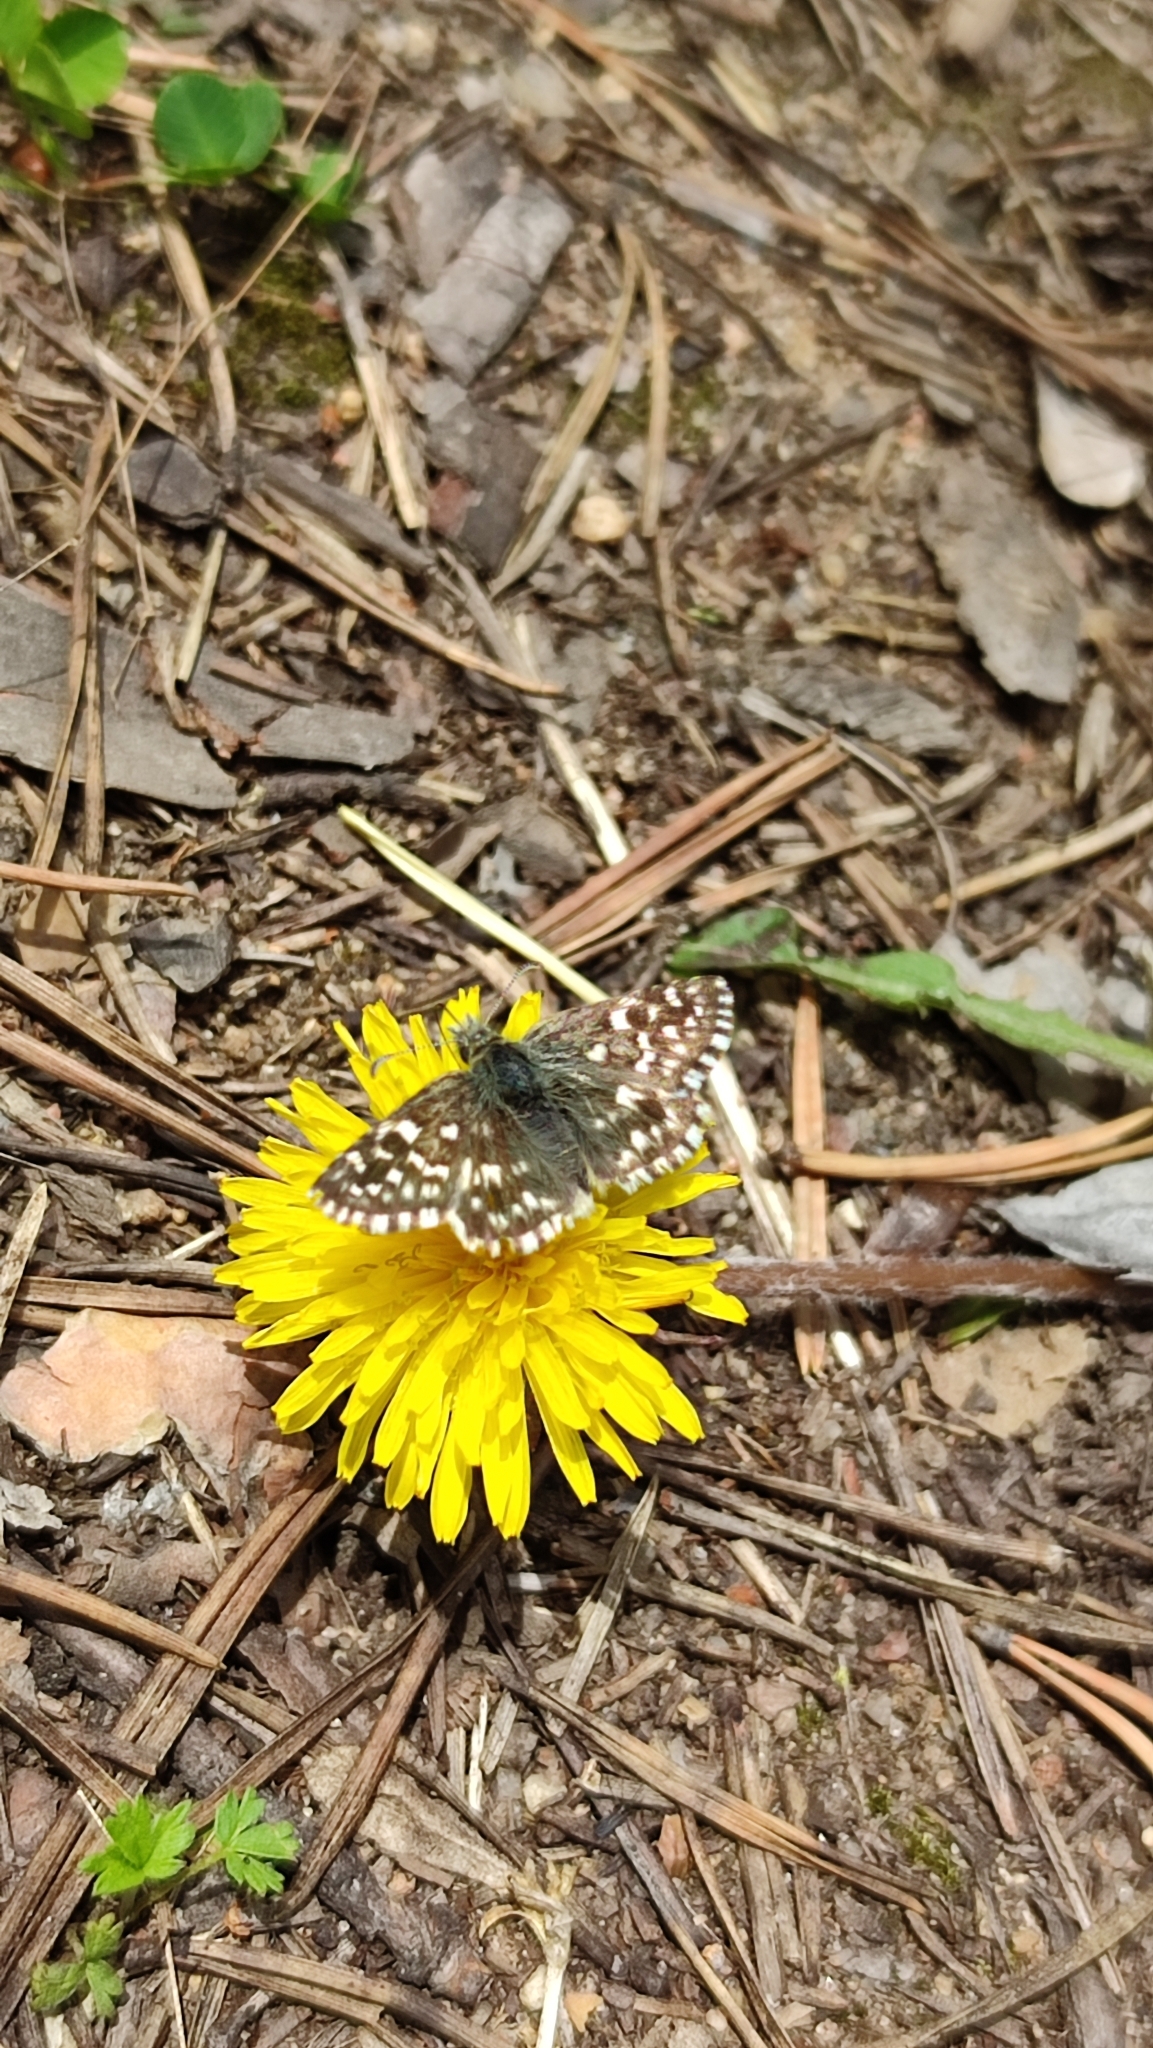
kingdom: Animalia
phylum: Arthropoda
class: Insecta
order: Lepidoptera
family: Hesperiidae
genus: Pyrgus
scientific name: Pyrgus malvae
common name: Grizzled skipper
